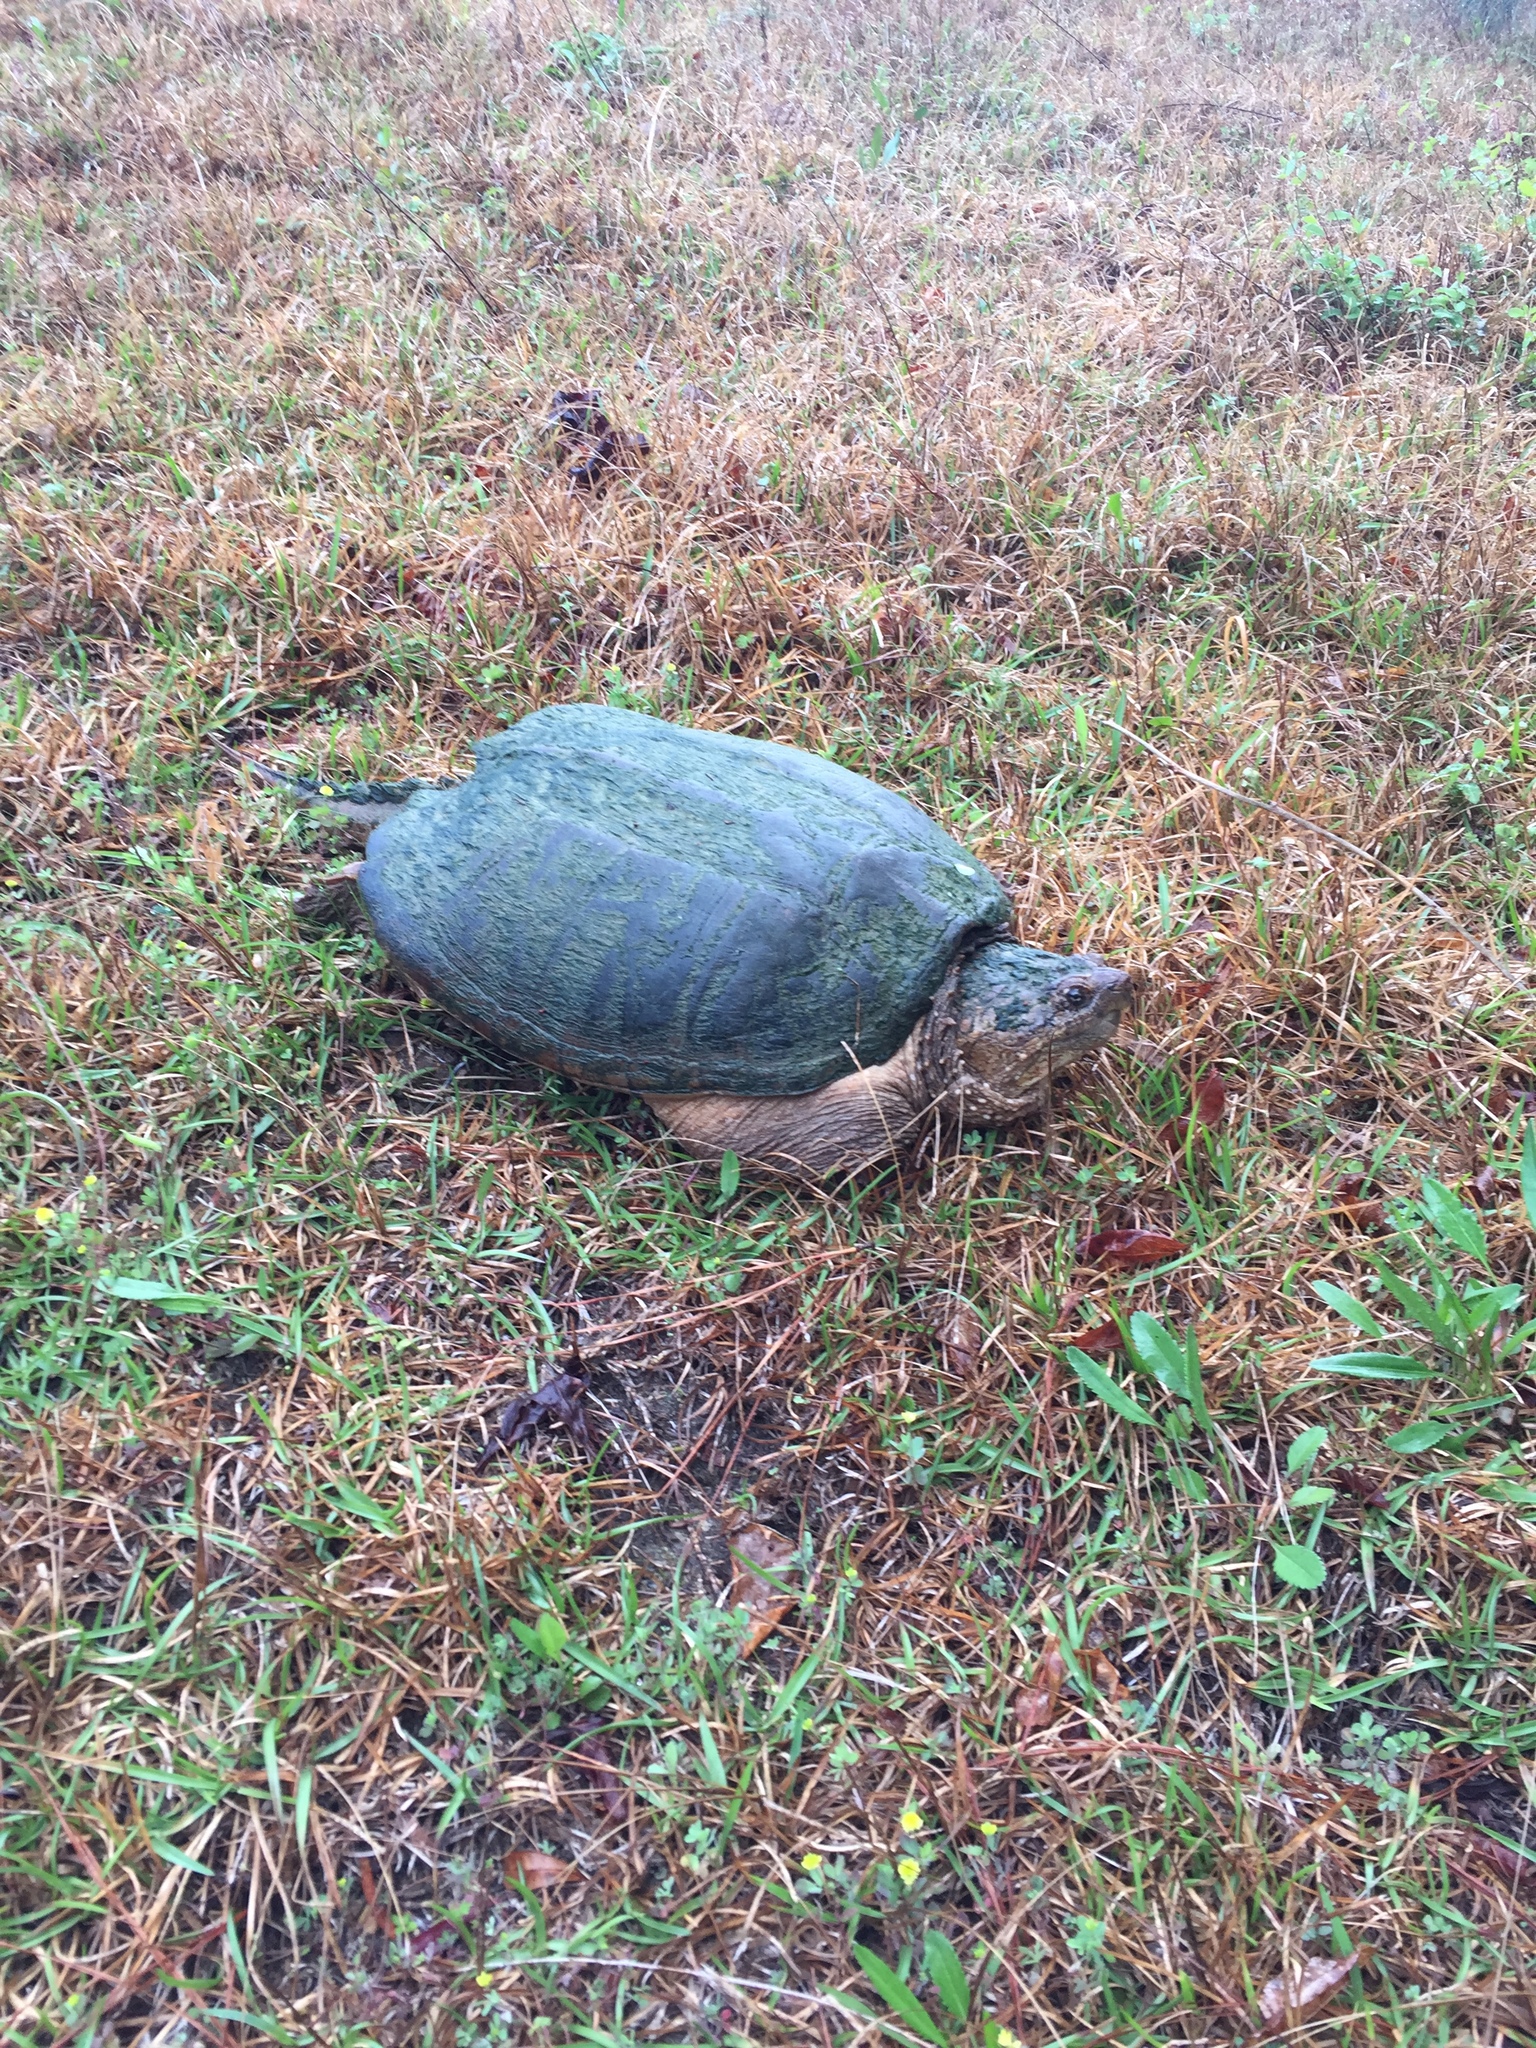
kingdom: Animalia
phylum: Chordata
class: Testudines
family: Chelydridae
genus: Chelydra
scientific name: Chelydra serpentina
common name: Common snapping turtle
